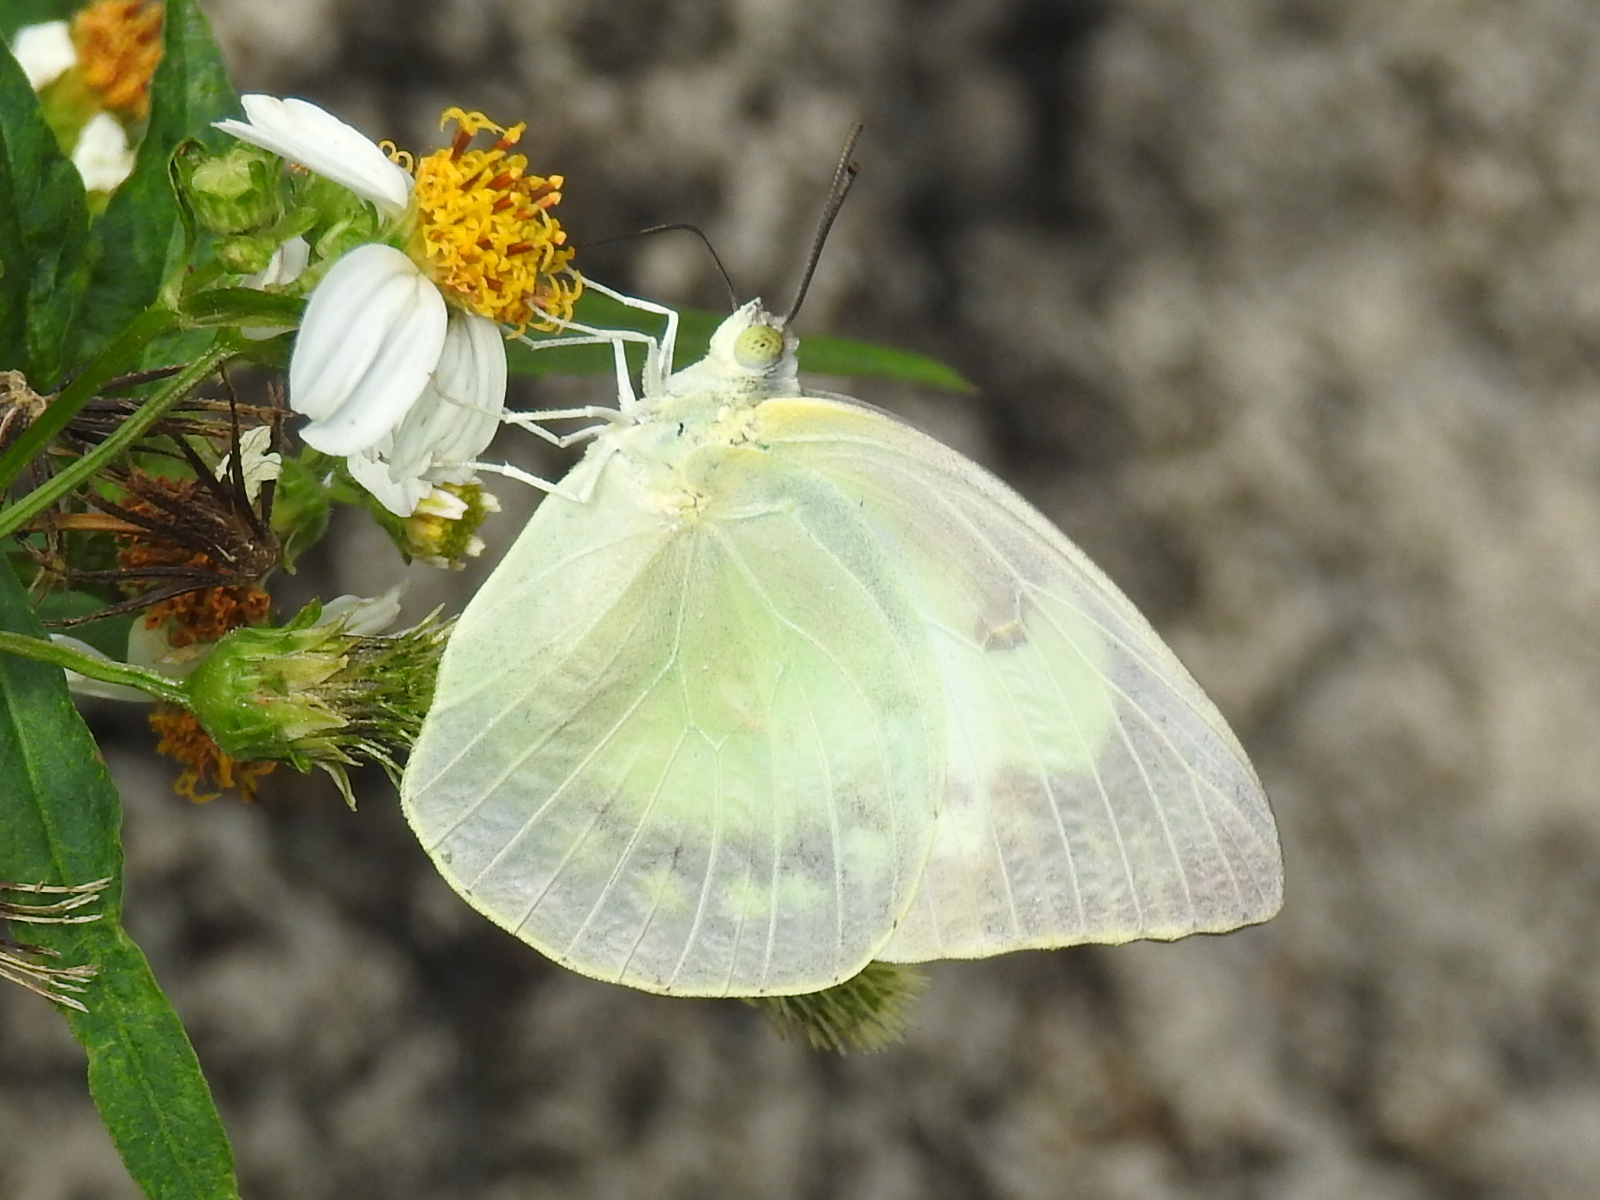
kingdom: Animalia
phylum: Arthropoda
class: Insecta
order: Lepidoptera
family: Pieridae
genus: Catopsilia
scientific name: Catopsilia pomona
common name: Common emigrant
